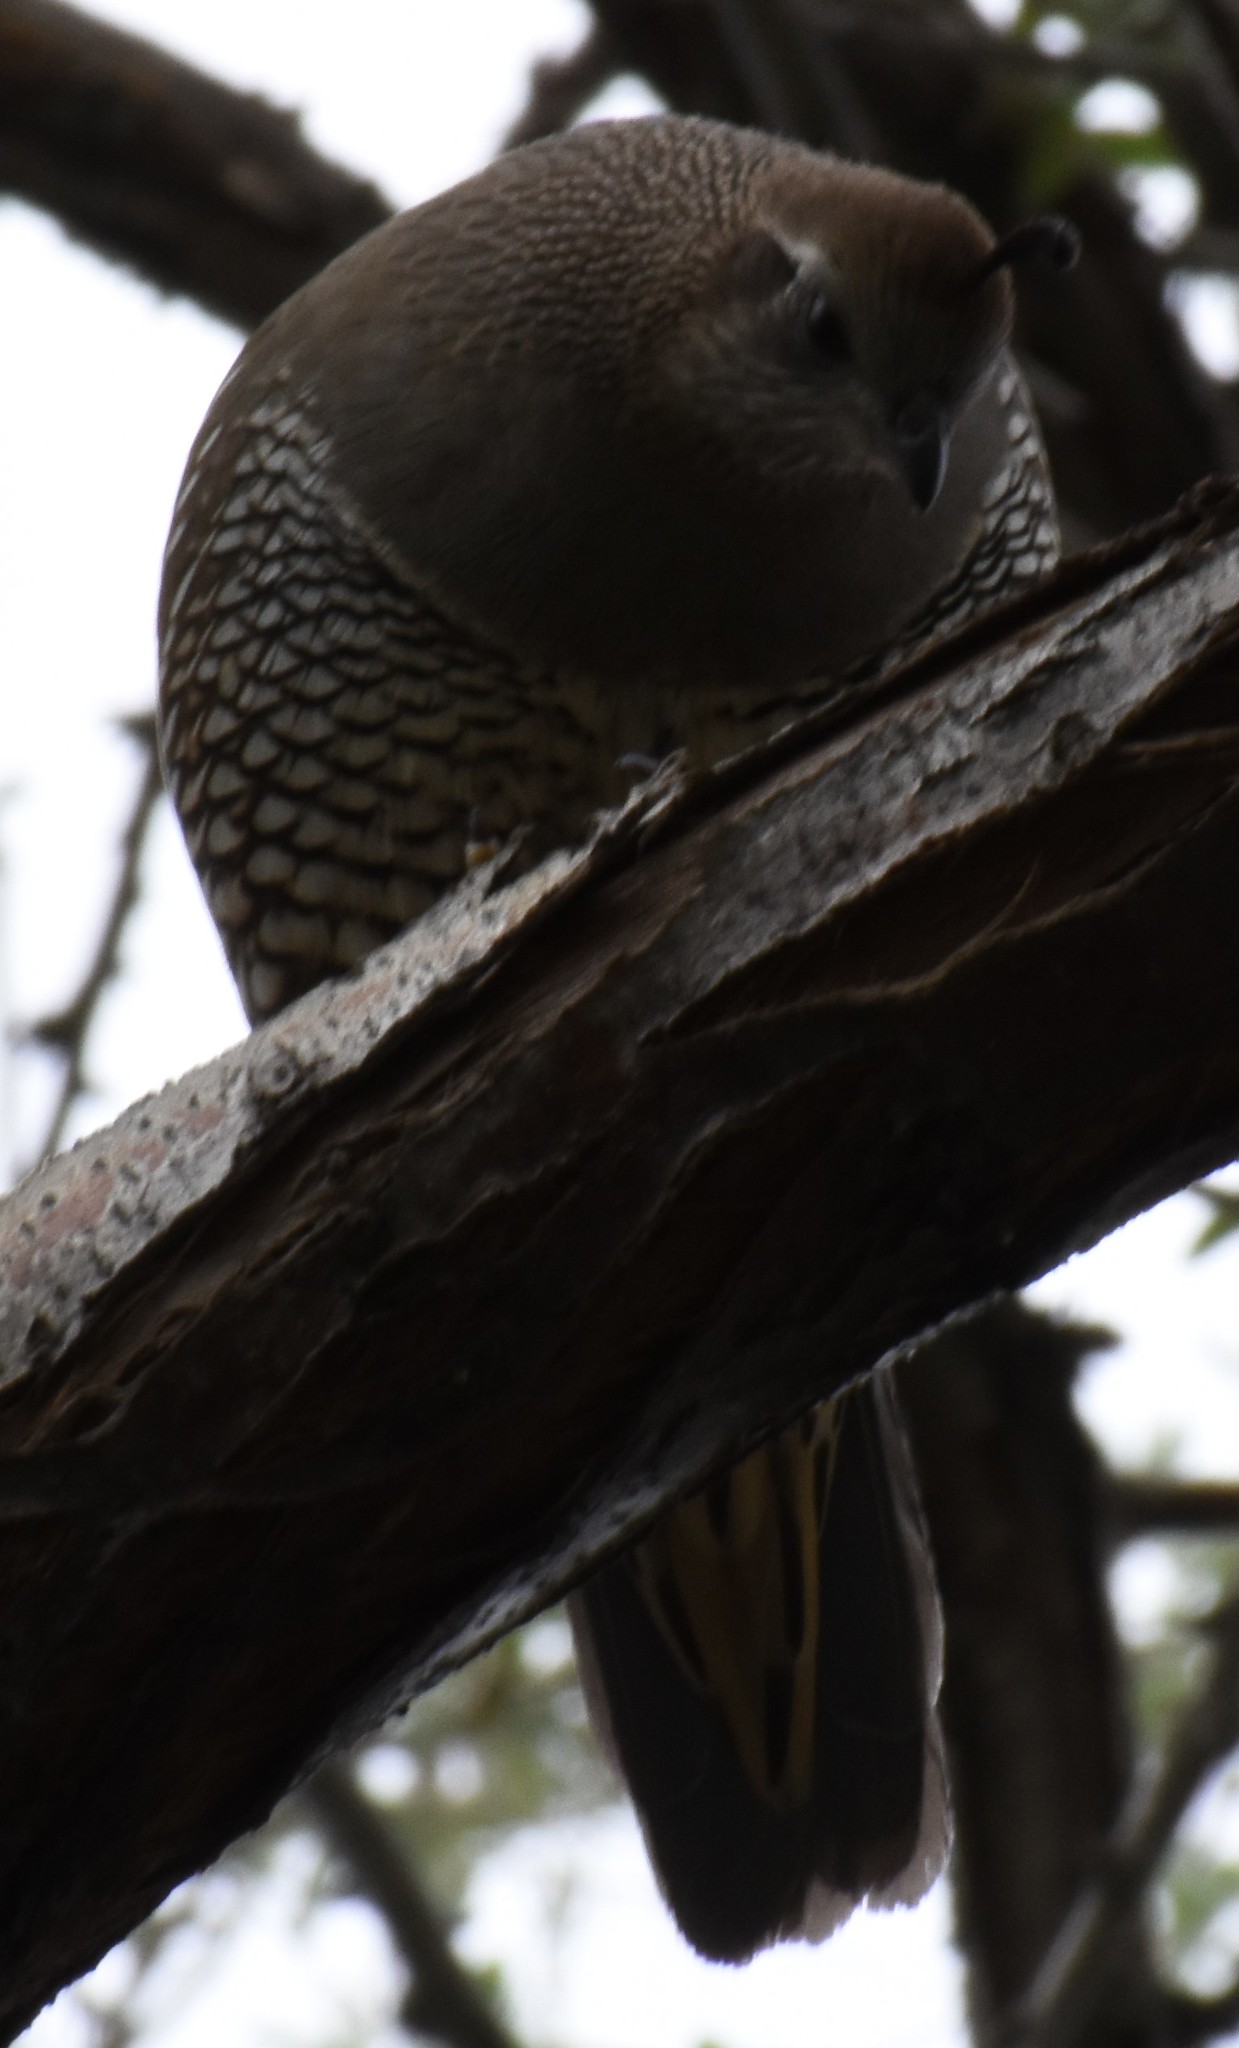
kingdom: Animalia
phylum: Chordata
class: Aves
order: Galliformes
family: Odontophoridae
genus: Callipepla
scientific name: Callipepla californica
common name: California quail
